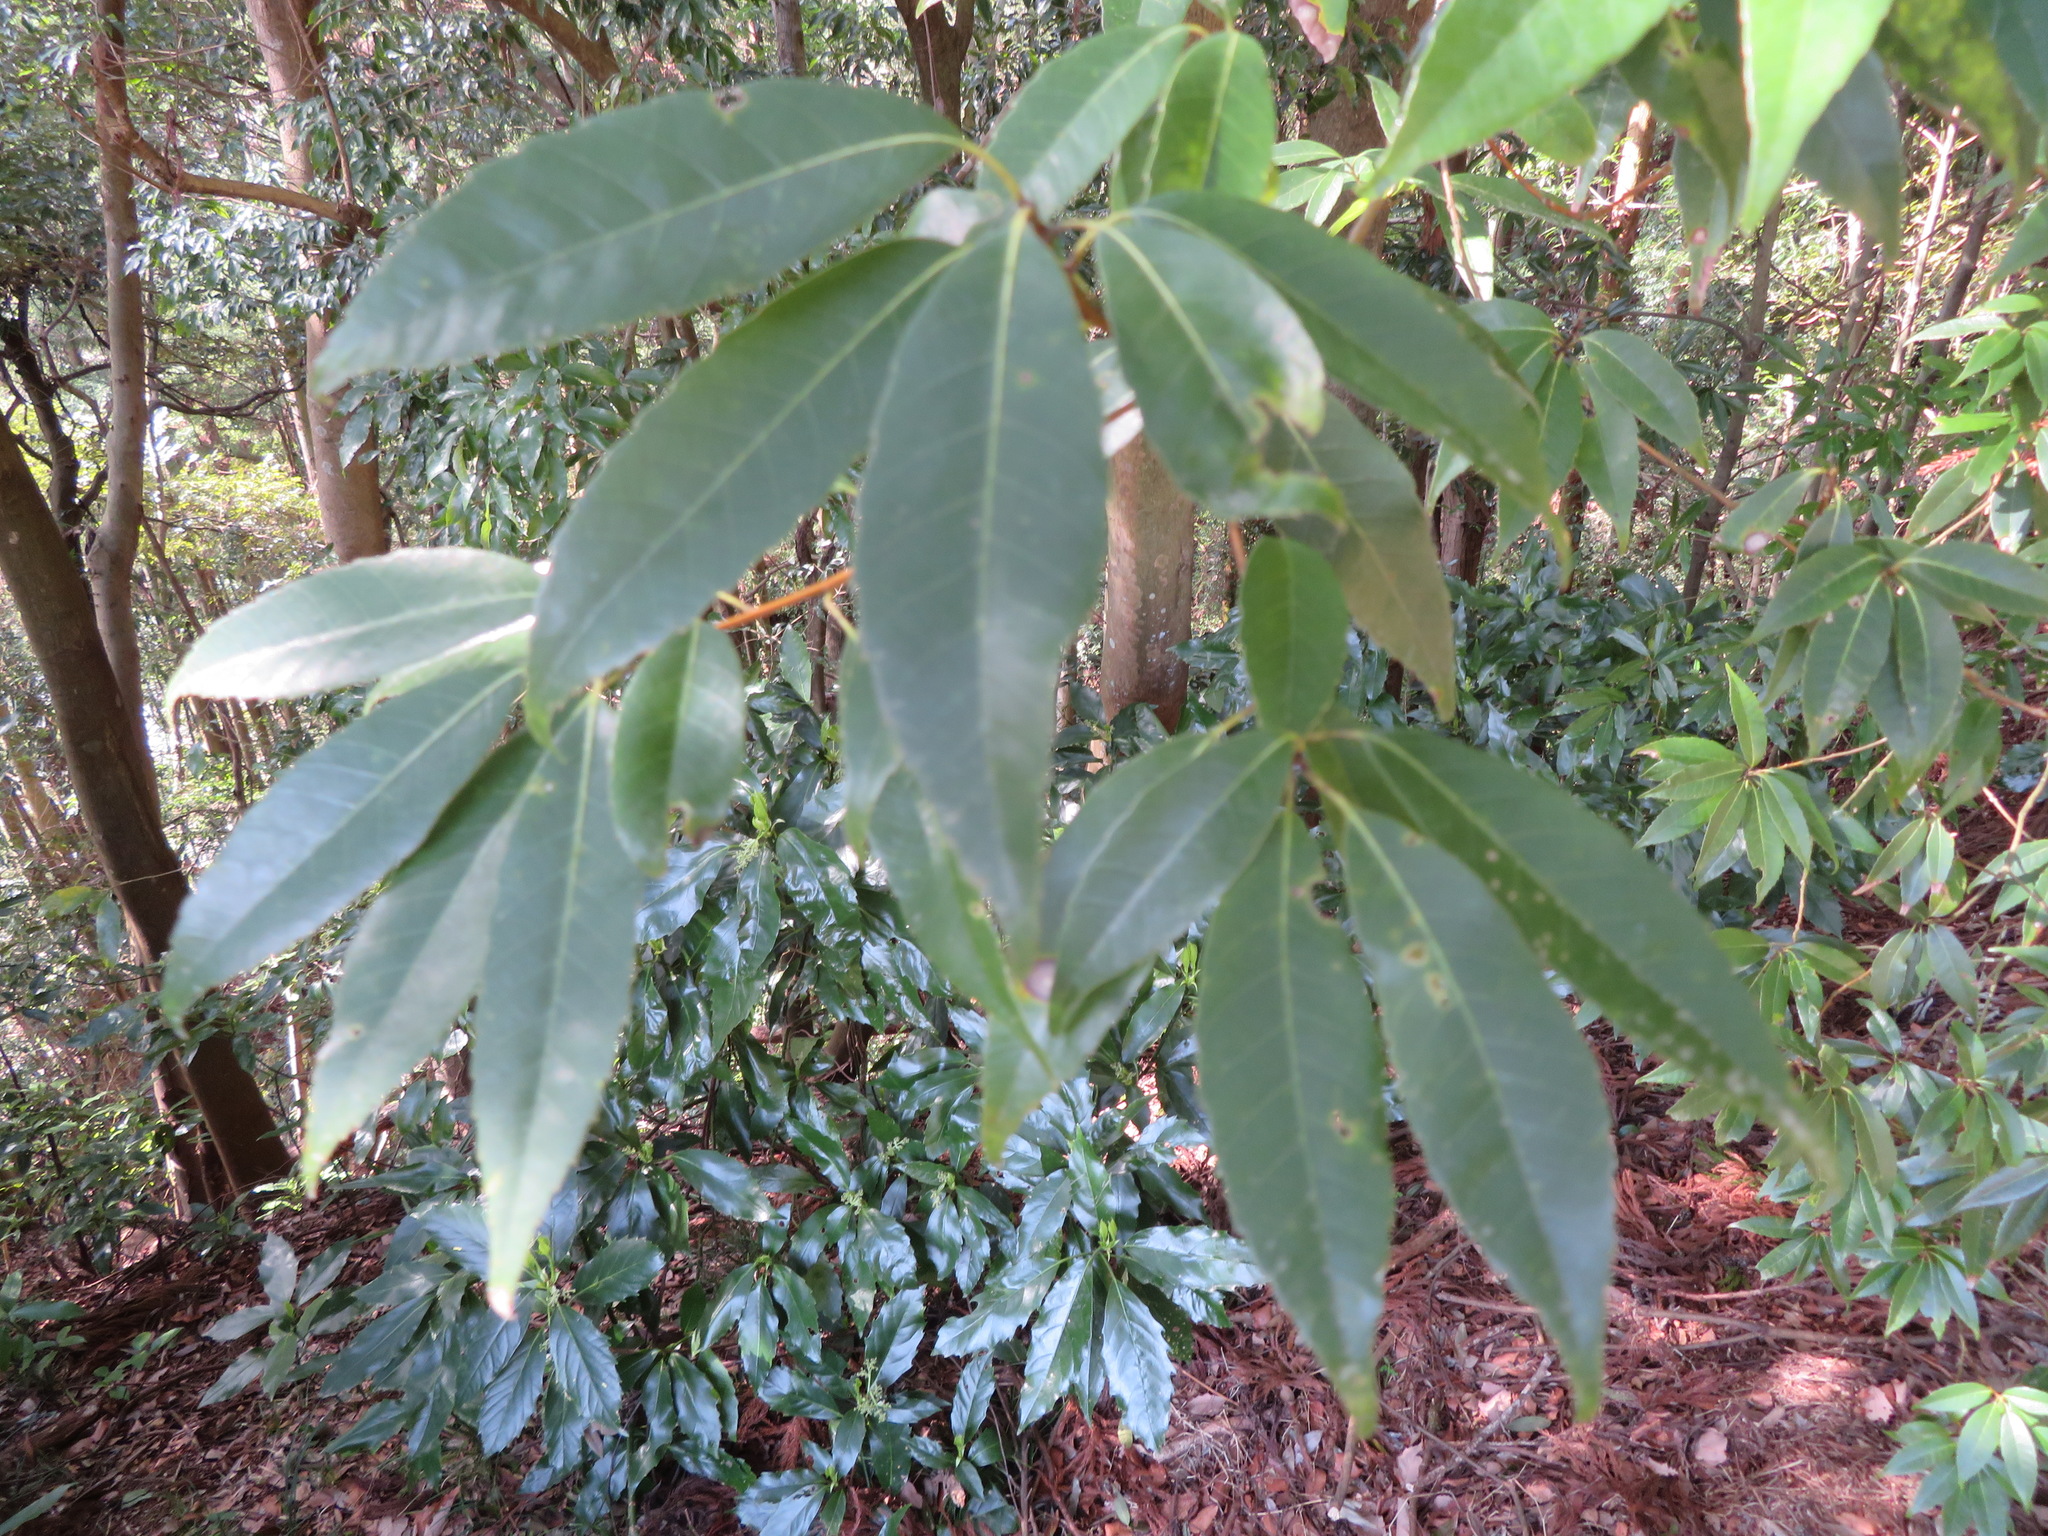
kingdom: Plantae
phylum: Tracheophyta
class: Magnoliopsida
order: Fagales
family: Fagaceae
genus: Quercus
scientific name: Quercus myrsinifolia
